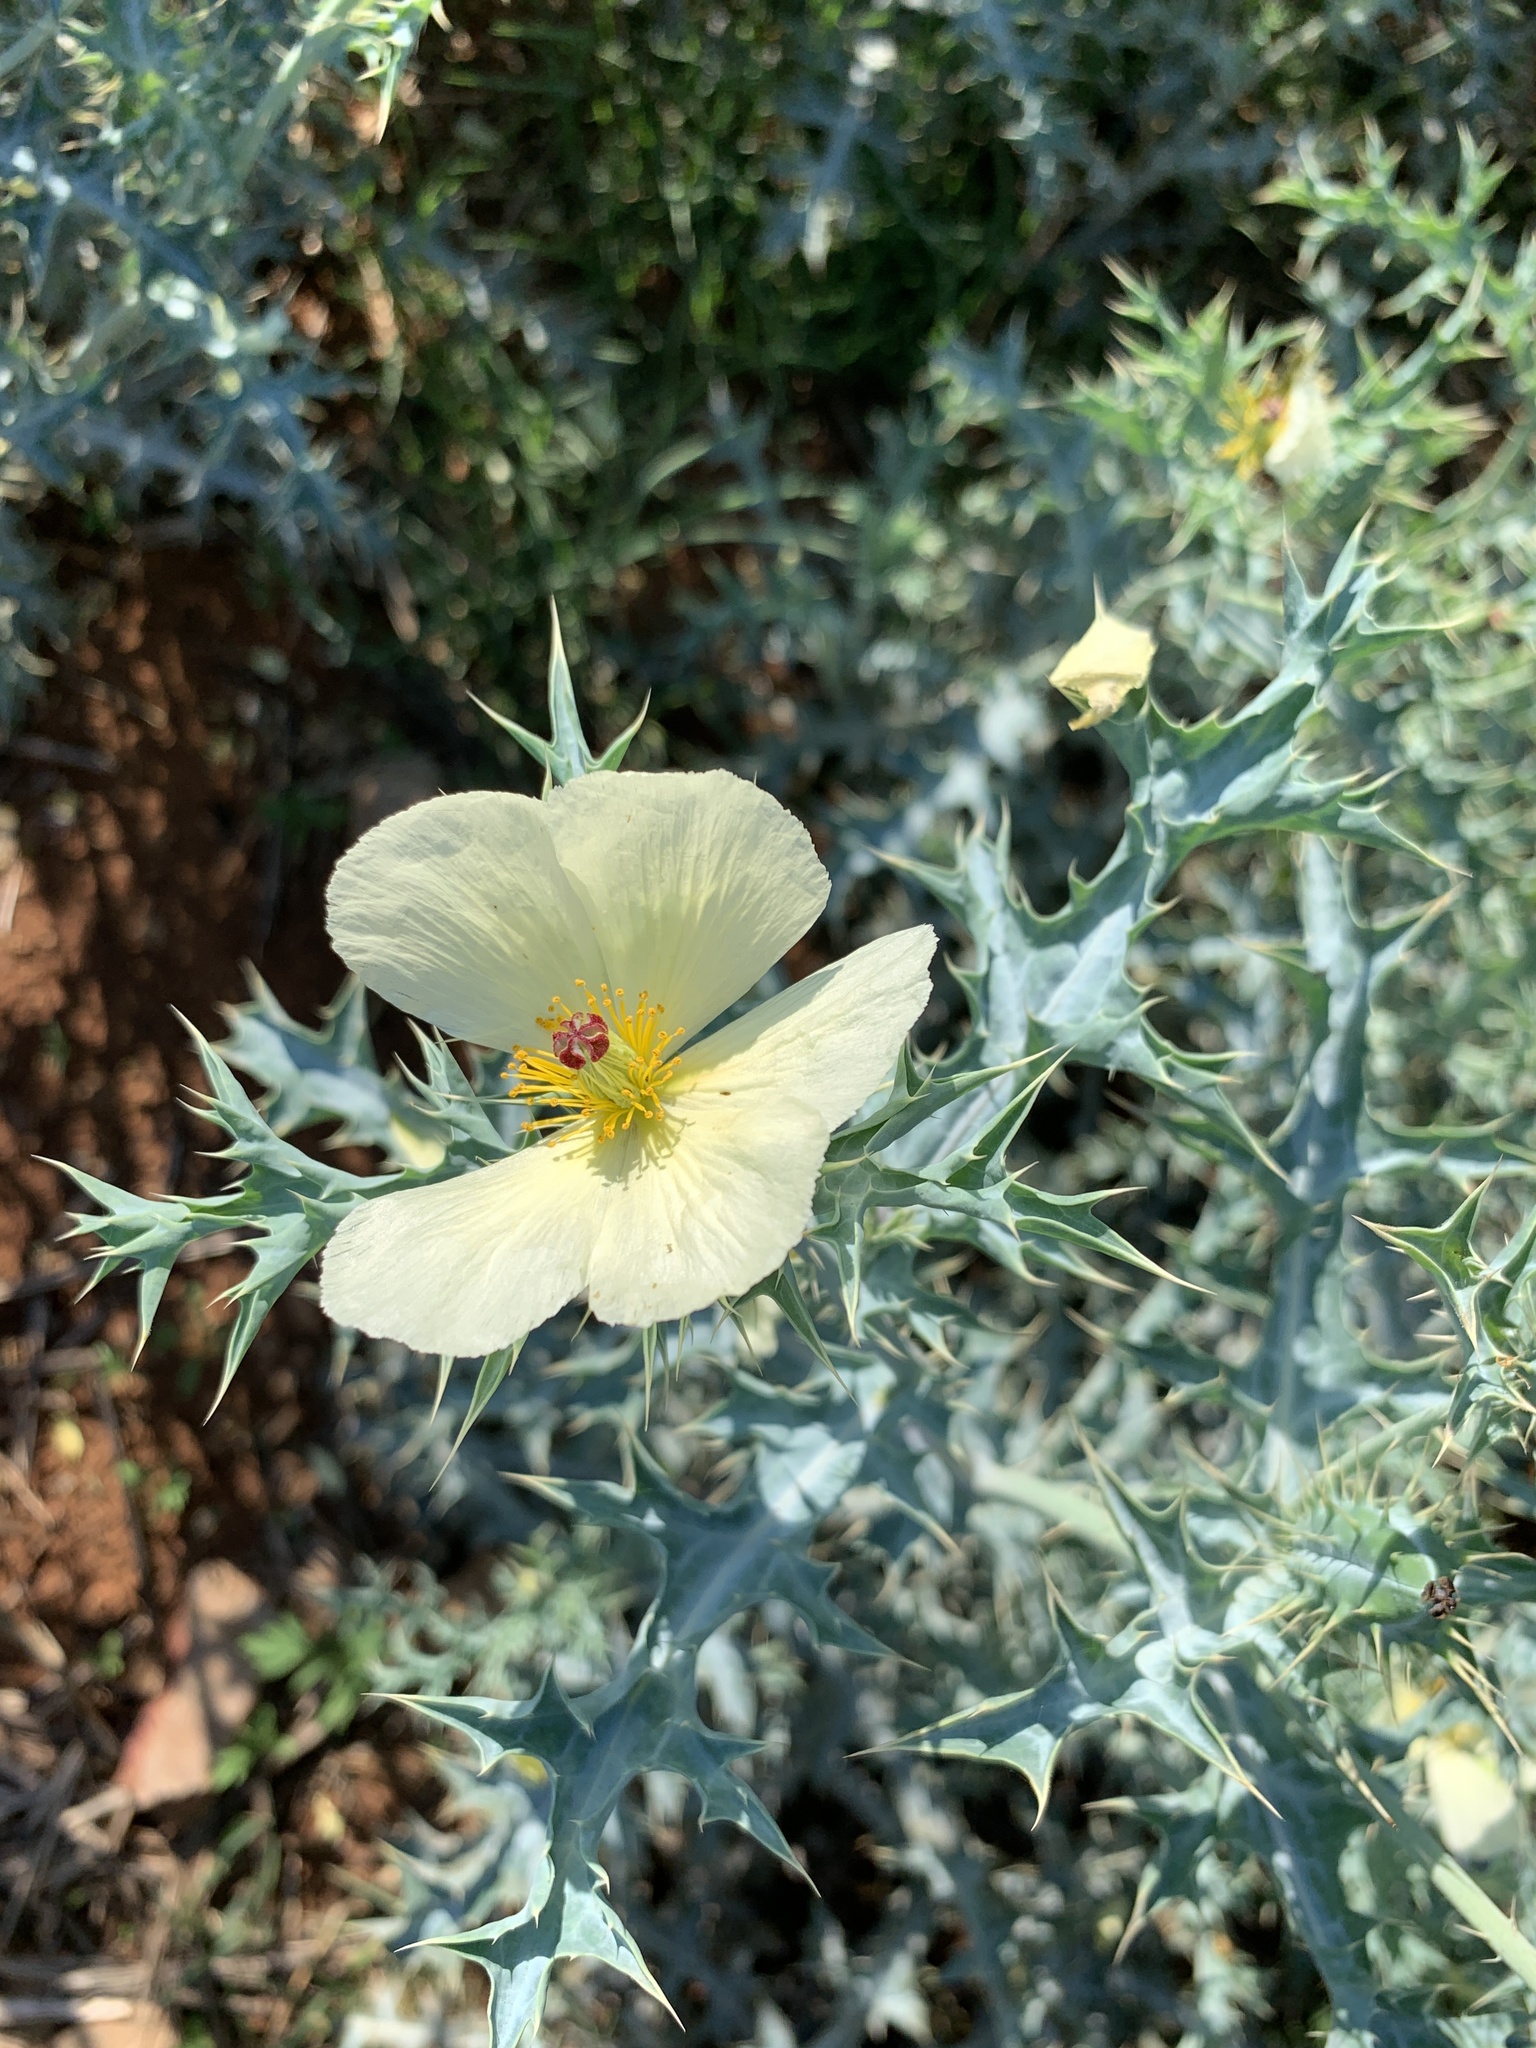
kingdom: Plantae
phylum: Tracheophyta
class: Magnoliopsida
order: Ranunculales
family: Papaveraceae
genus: Argemone
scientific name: Argemone ochroleuca
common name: White-flower mexican-poppy
